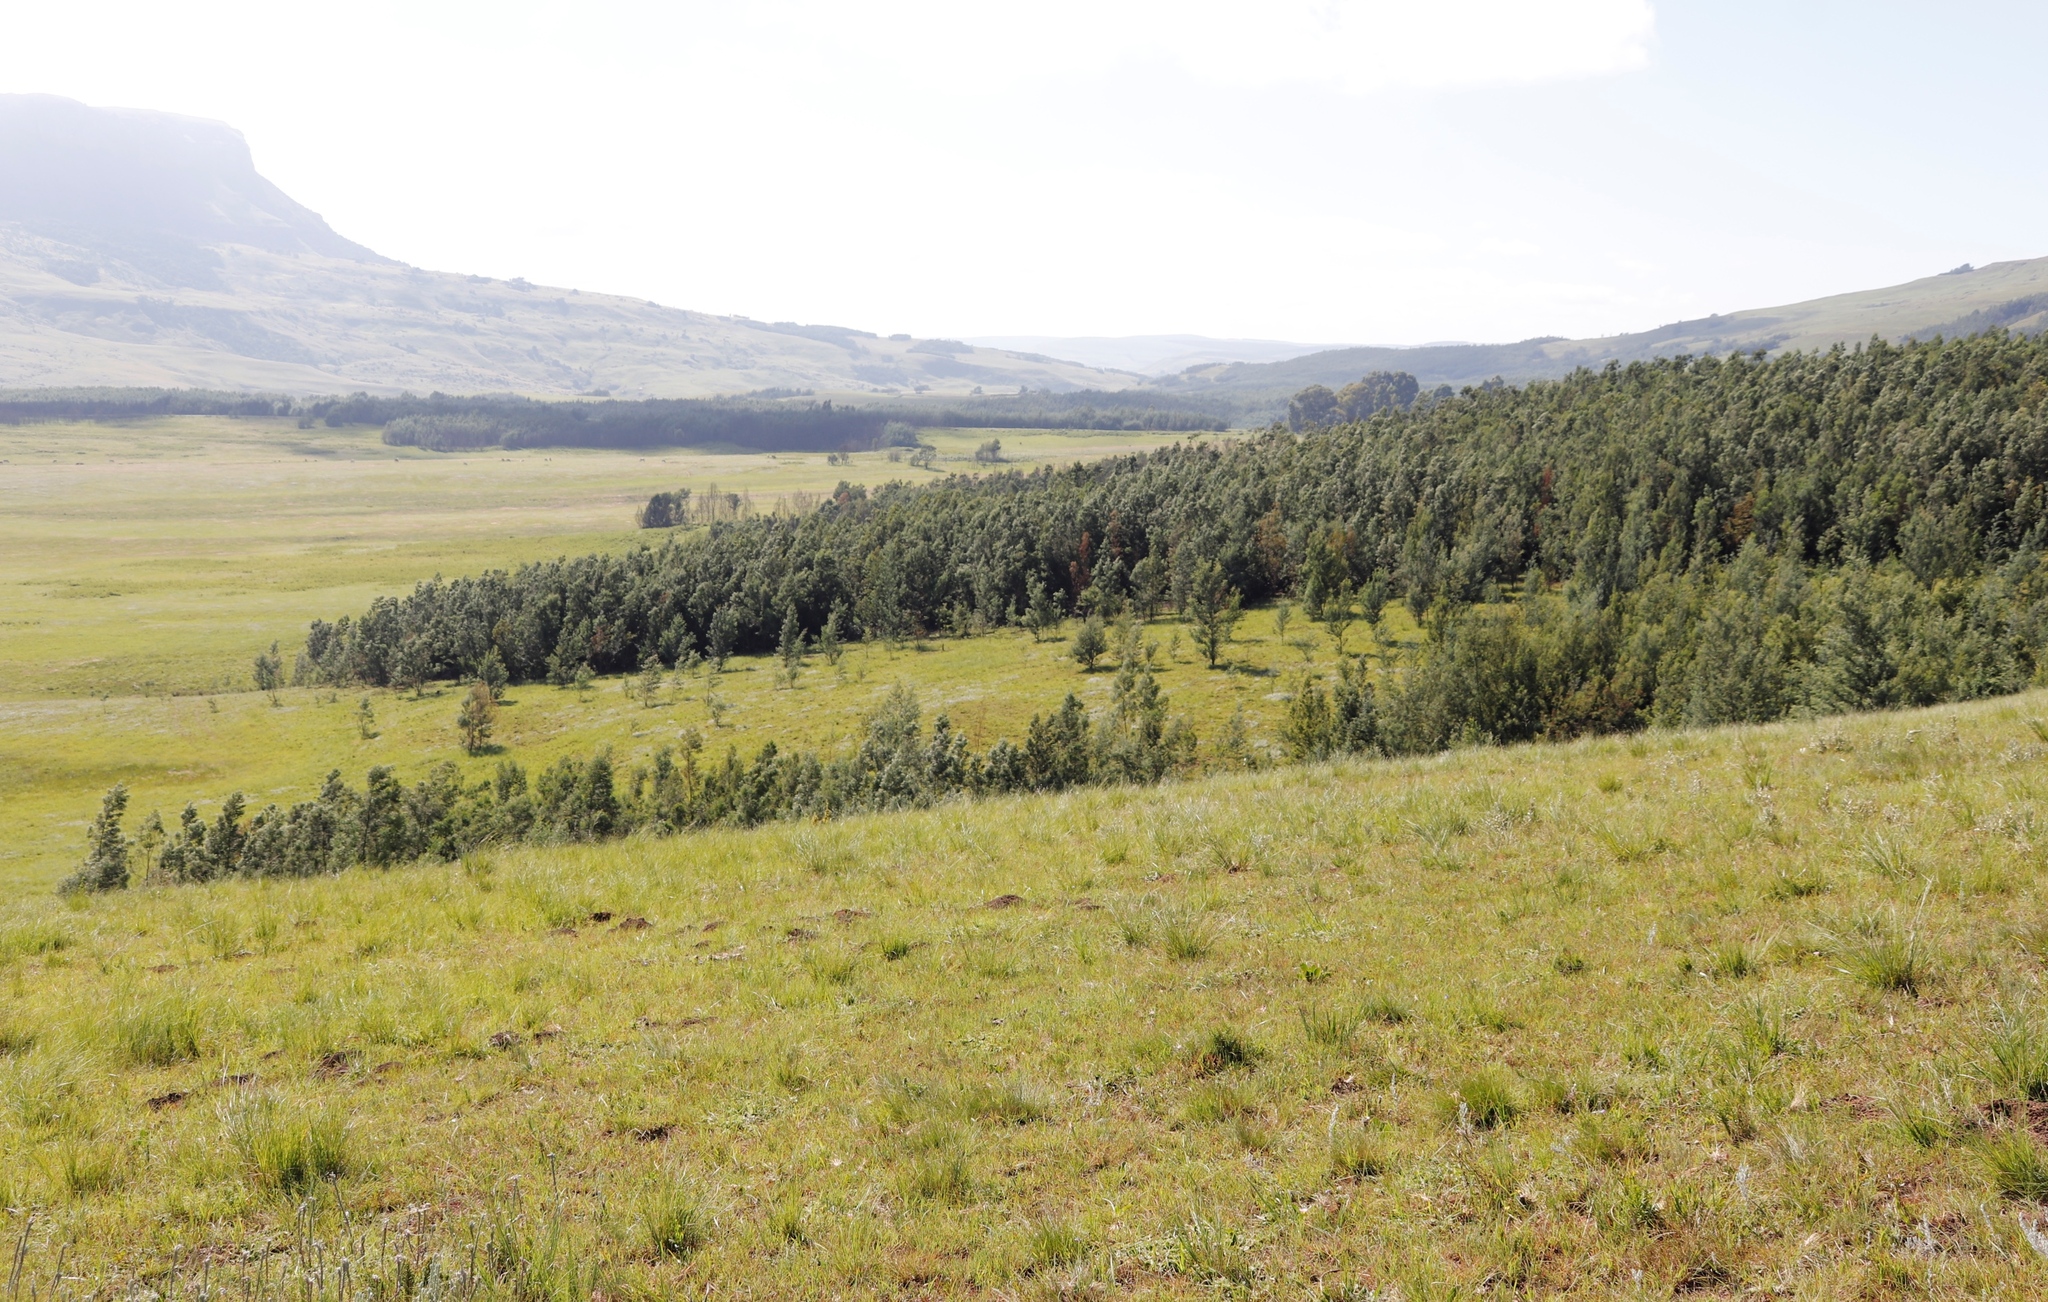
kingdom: Plantae
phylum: Tracheophyta
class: Magnoliopsida
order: Fabales
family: Fabaceae
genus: Acacia
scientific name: Acacia dealbata
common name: Silver wattle
